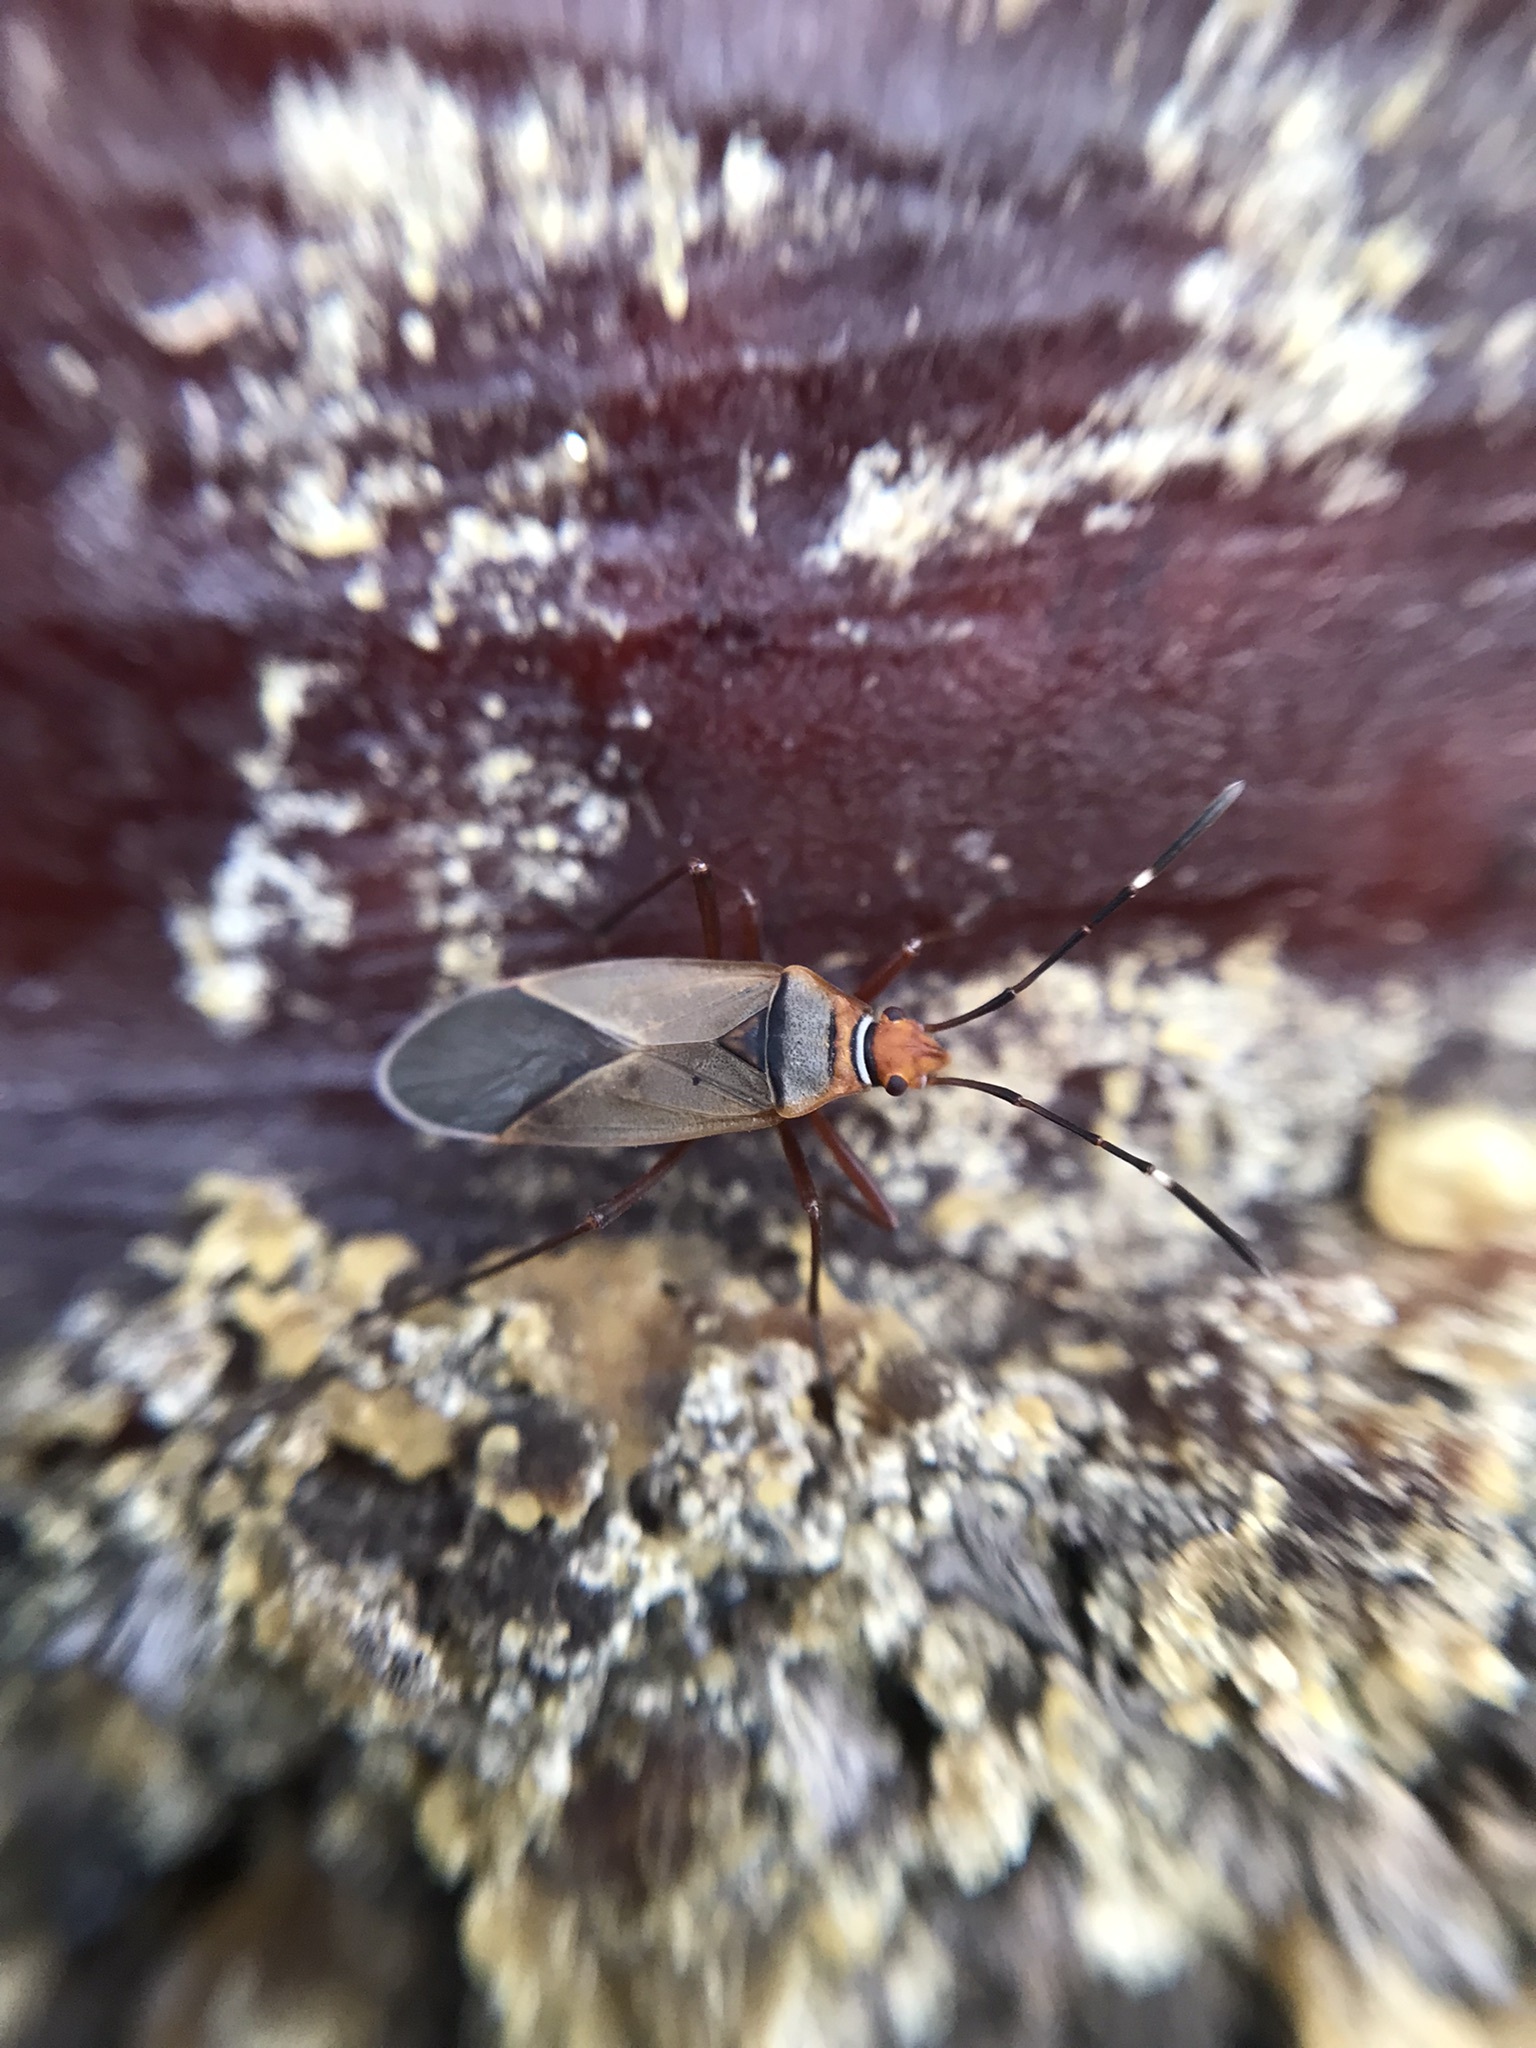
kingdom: Animalia
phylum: Arthropoda
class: Insecta
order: Hemiptera
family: Pyrrhocoridae
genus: Dysdercus
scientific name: Dysdercus
